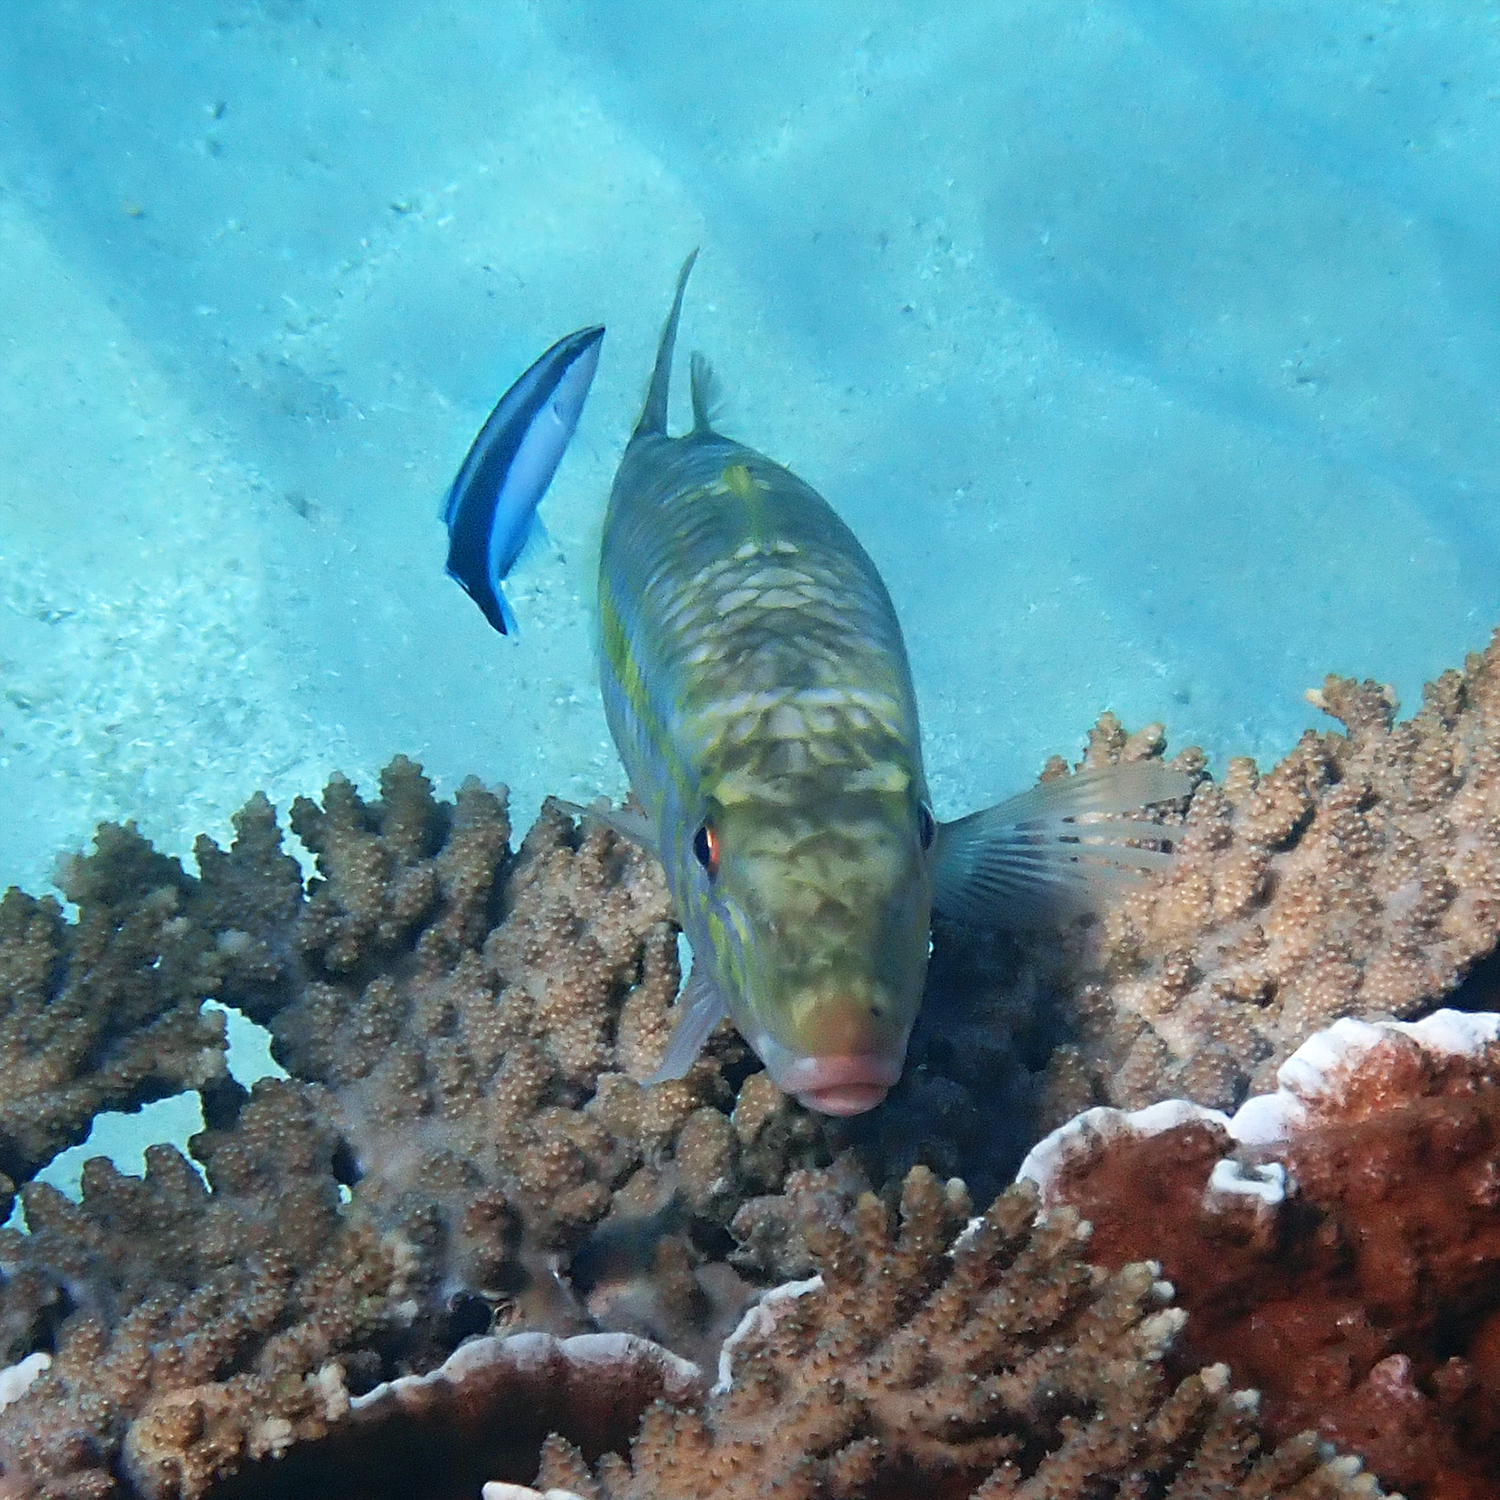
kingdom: Animalia
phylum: Chordata
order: Perciformes
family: Labridae
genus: Labroides
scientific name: Labroides dimidiatus
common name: Blue diesel wrasse
